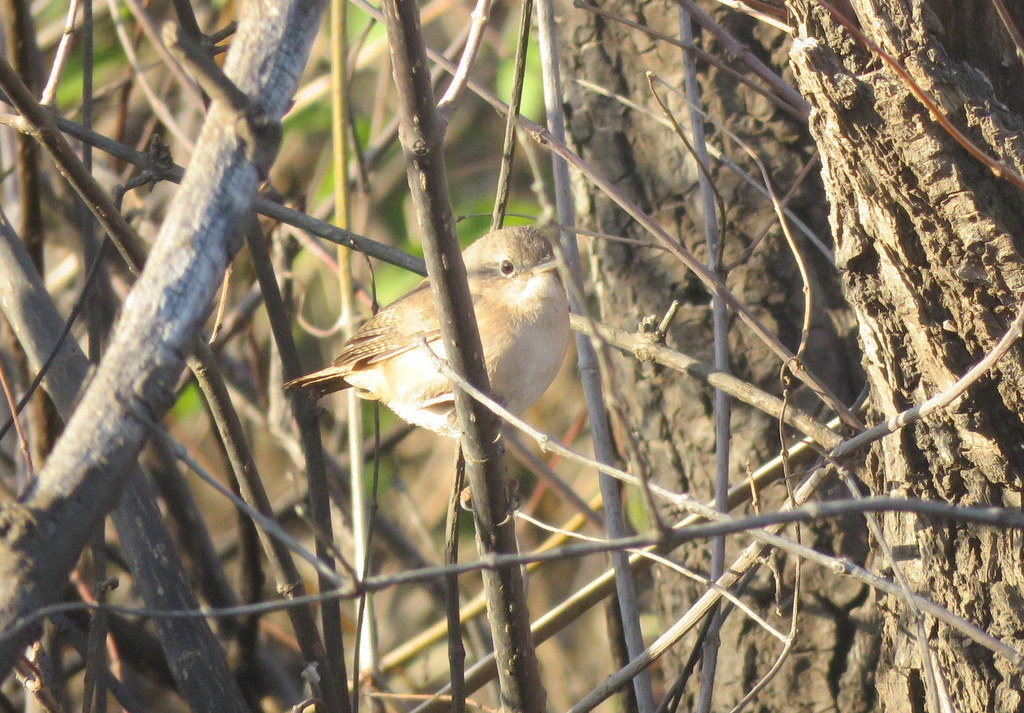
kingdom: Animalia
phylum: Chordata
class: Aves
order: Passeriformes
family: Troglodytidae
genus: Troglodytes
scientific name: Troglodytes aedon
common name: House wren
